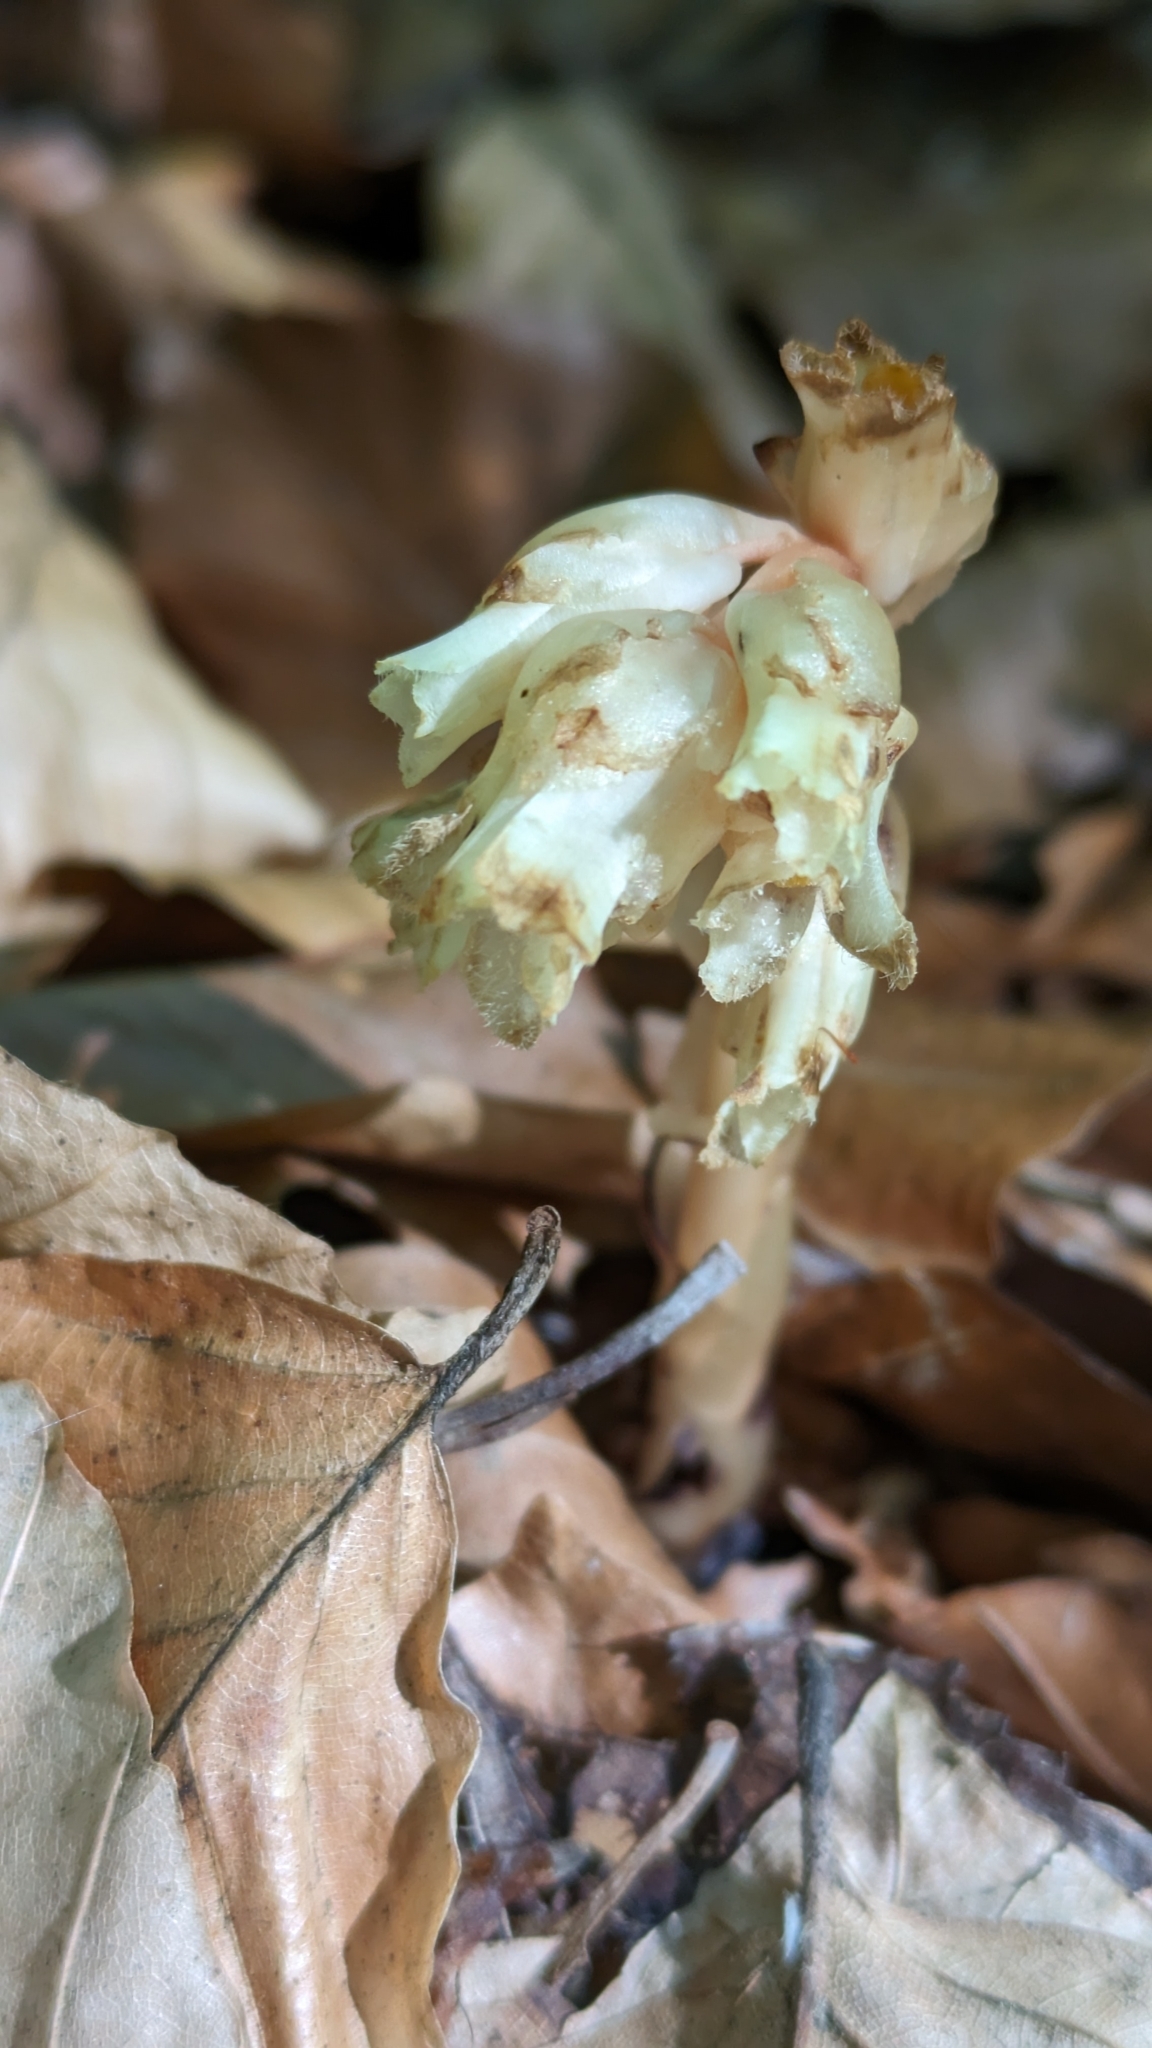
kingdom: Plantae
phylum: Tracheophyta
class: Magnoliopsida
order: Ericales
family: Ericaceae
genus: Hypopitys
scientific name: Hypopitys monotropa
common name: Yellow bird's-nest
